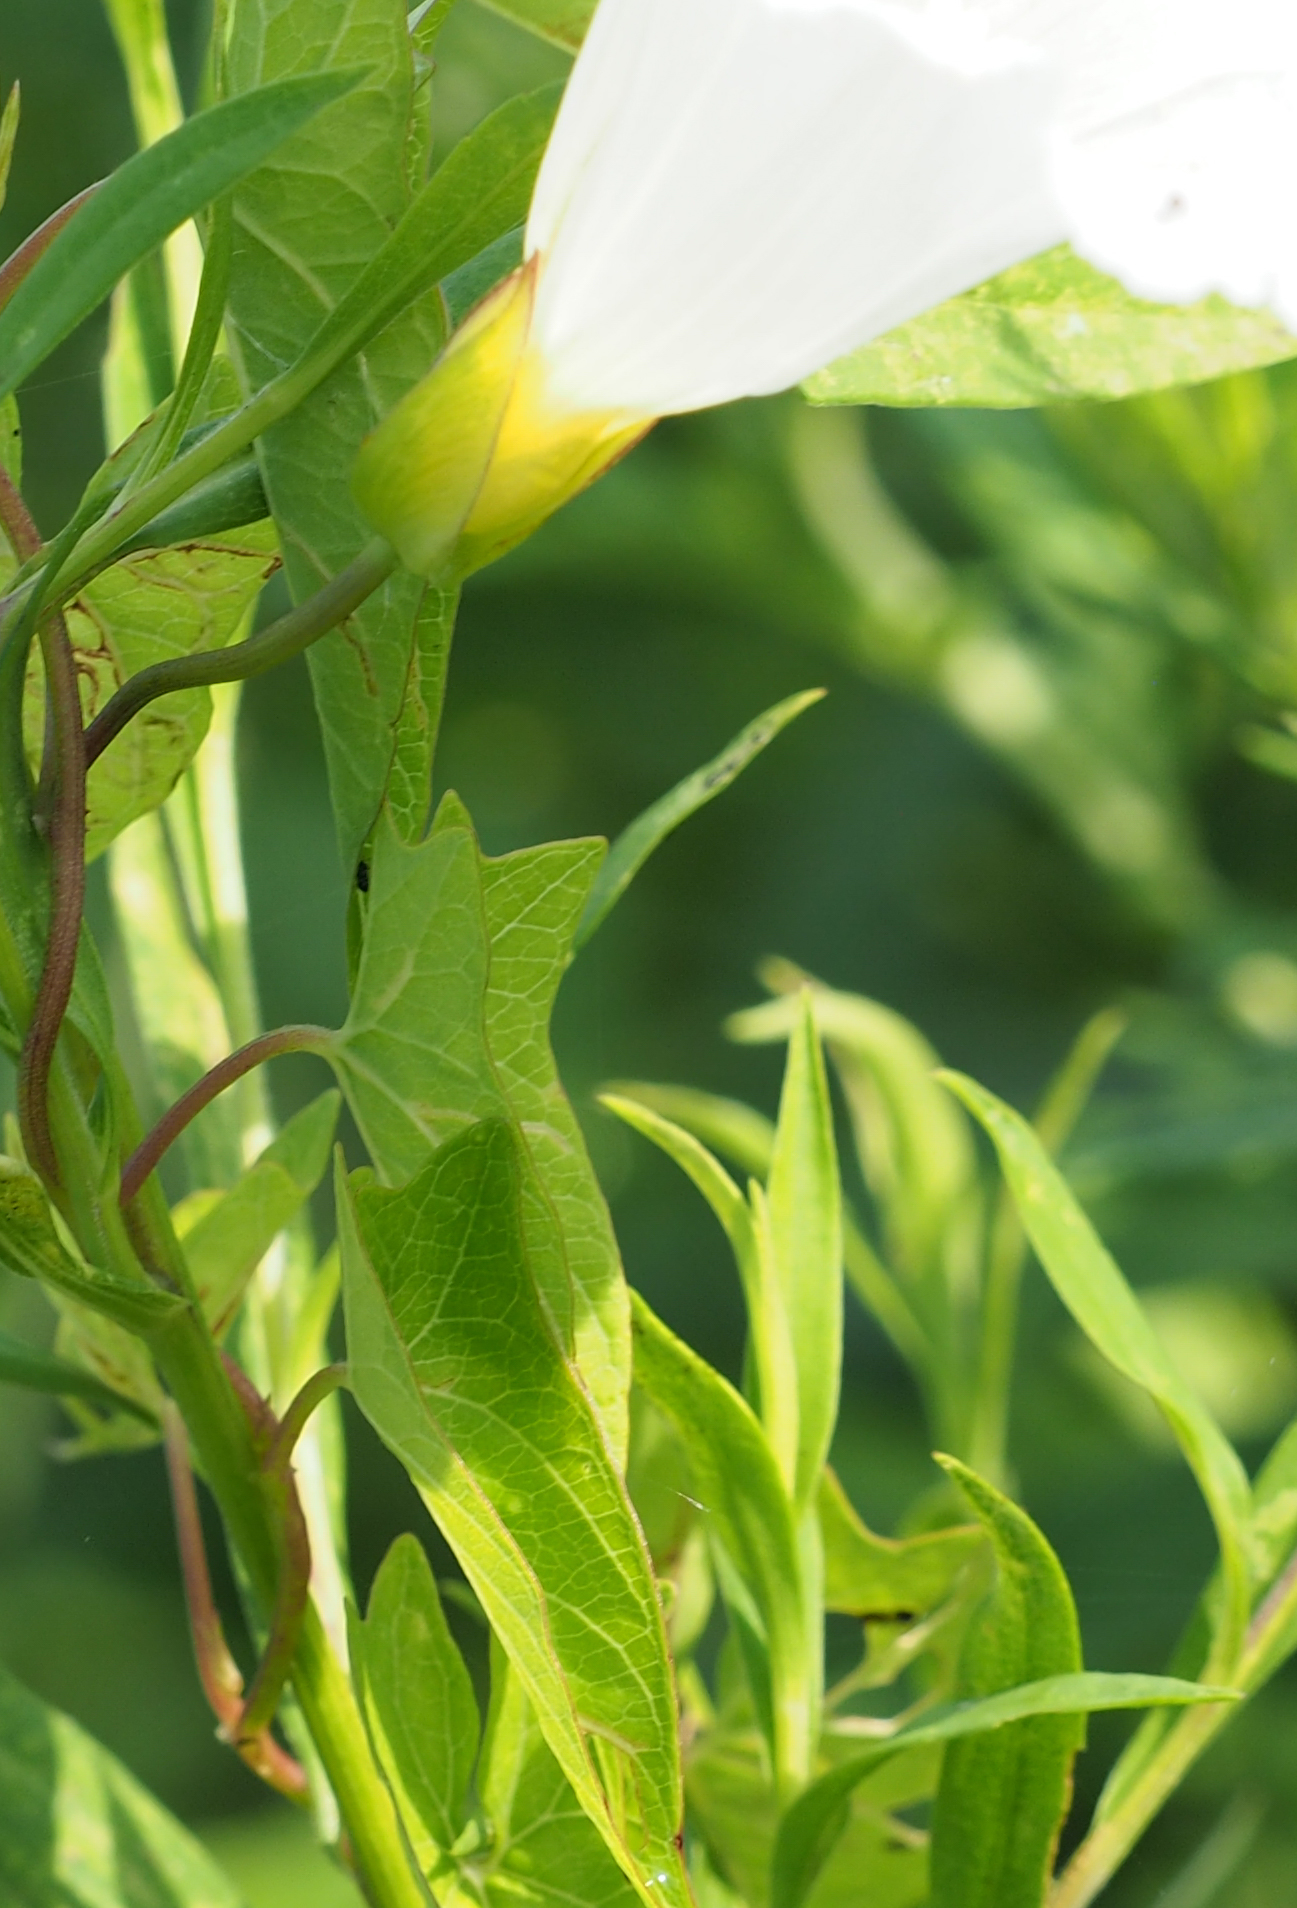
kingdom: Plantae
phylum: Tracheophyta
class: Magnoliopsida
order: Solanales
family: Convolvulaceae
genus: Calystegia
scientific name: Calystegia sepium
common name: Hedge bindweed
